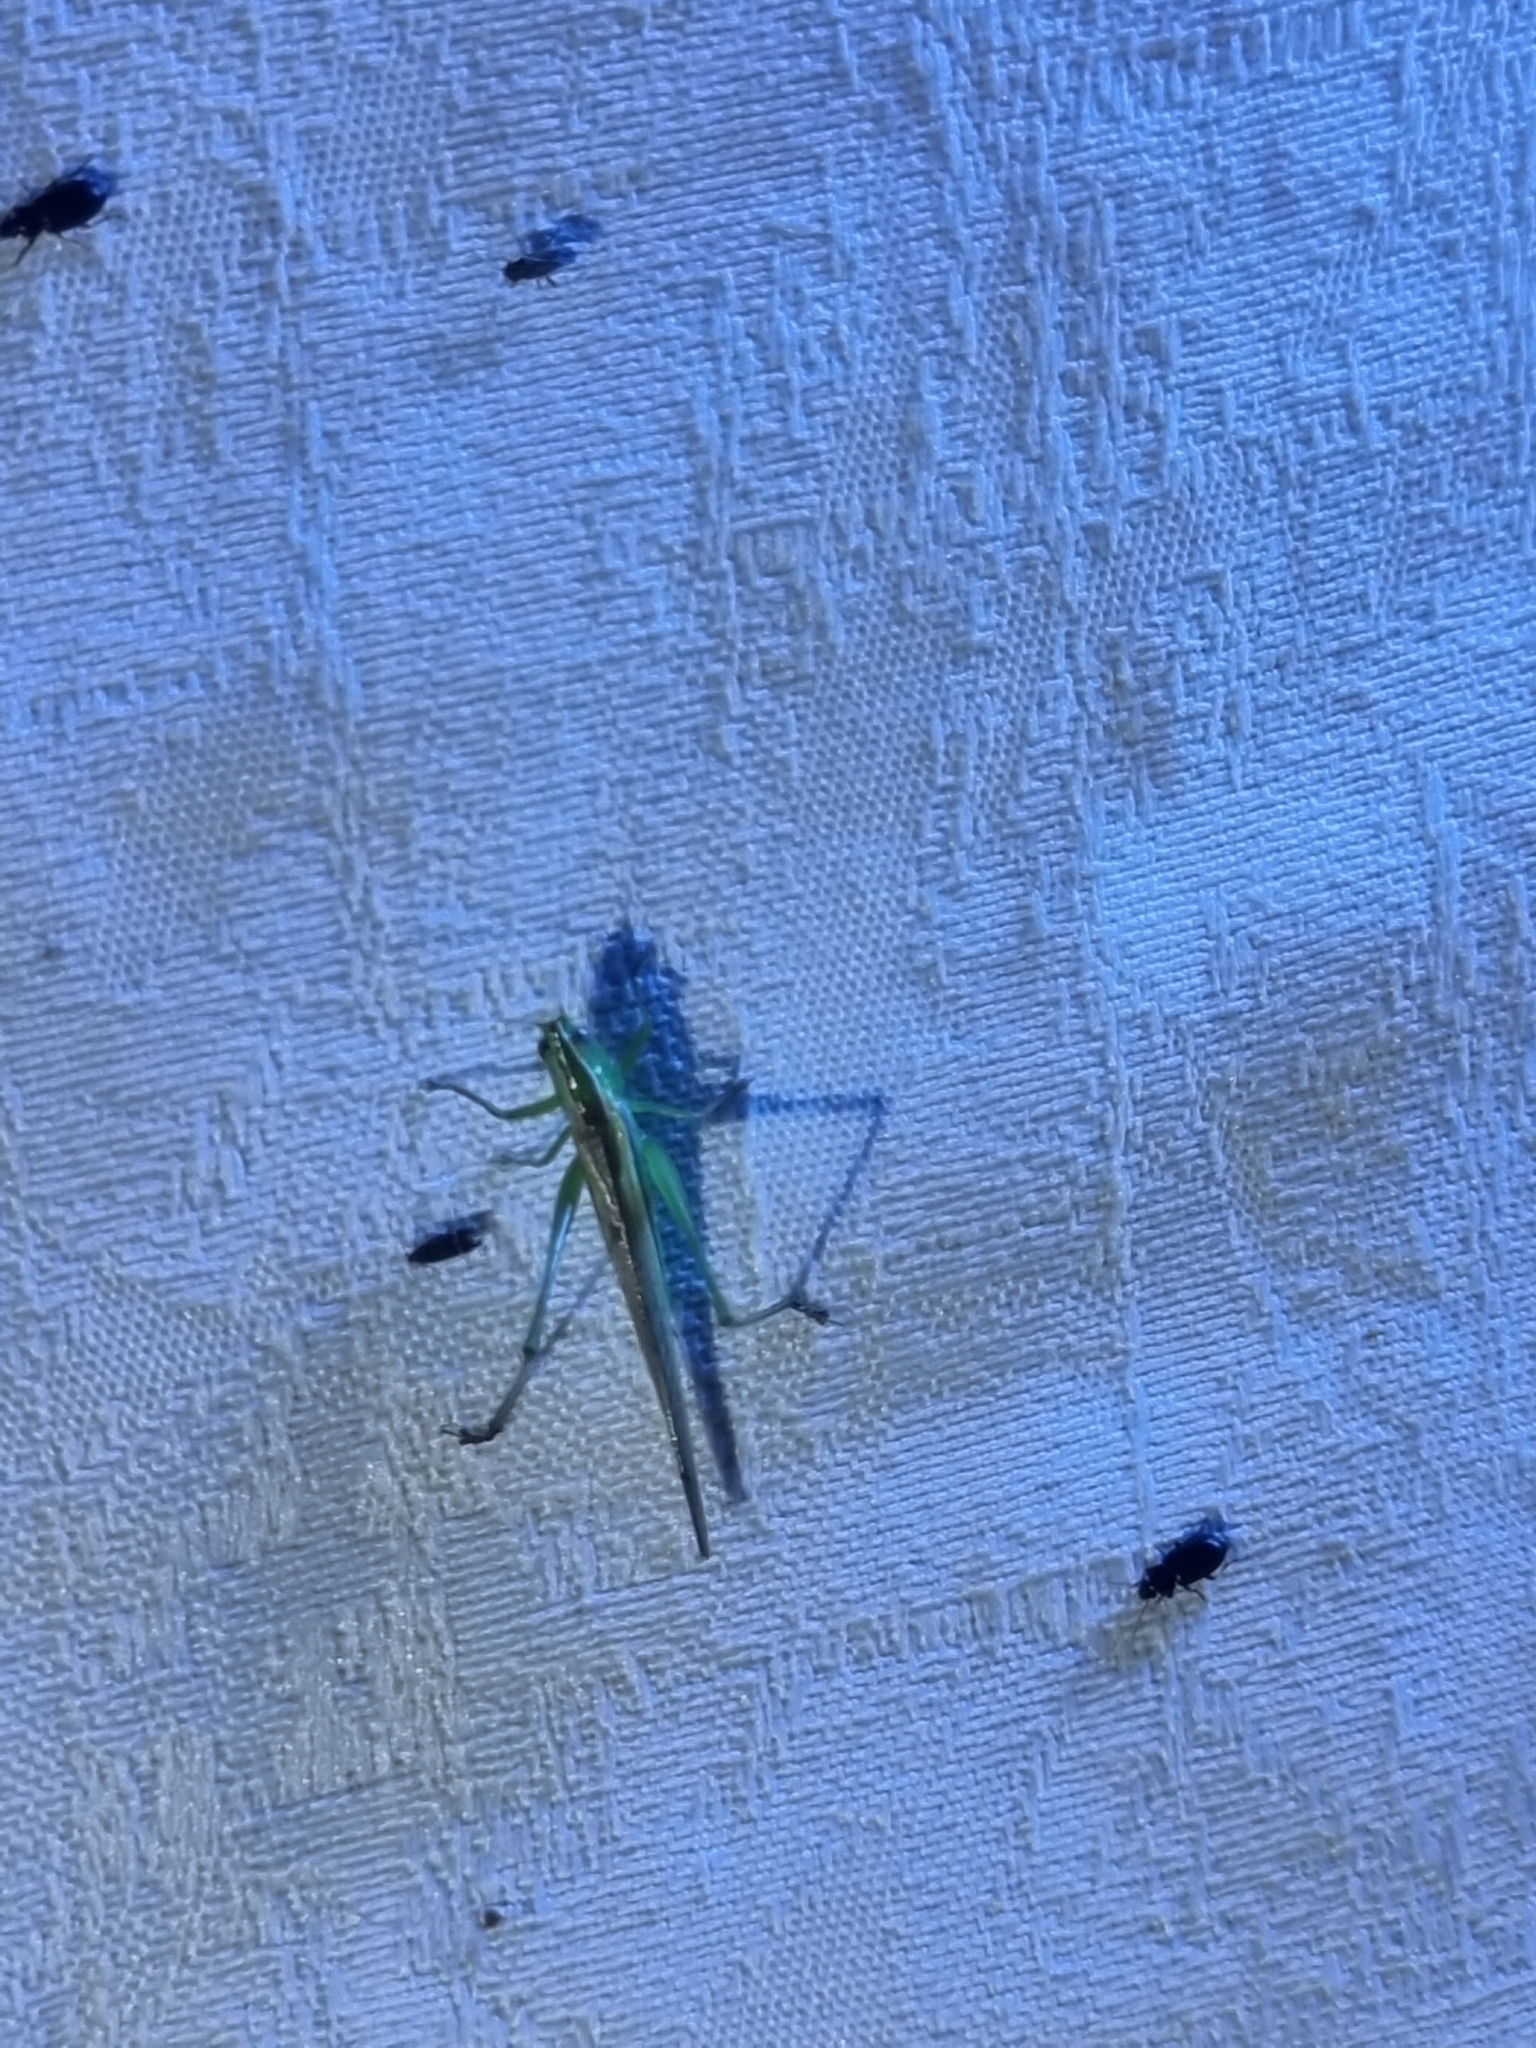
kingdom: Animalia
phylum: Arthropoda
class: Insecta
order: Orthoptera
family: Tettigoniidae
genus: Conocephalus
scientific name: Conocephalus upoluensis
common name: Upolu meadow katydid
